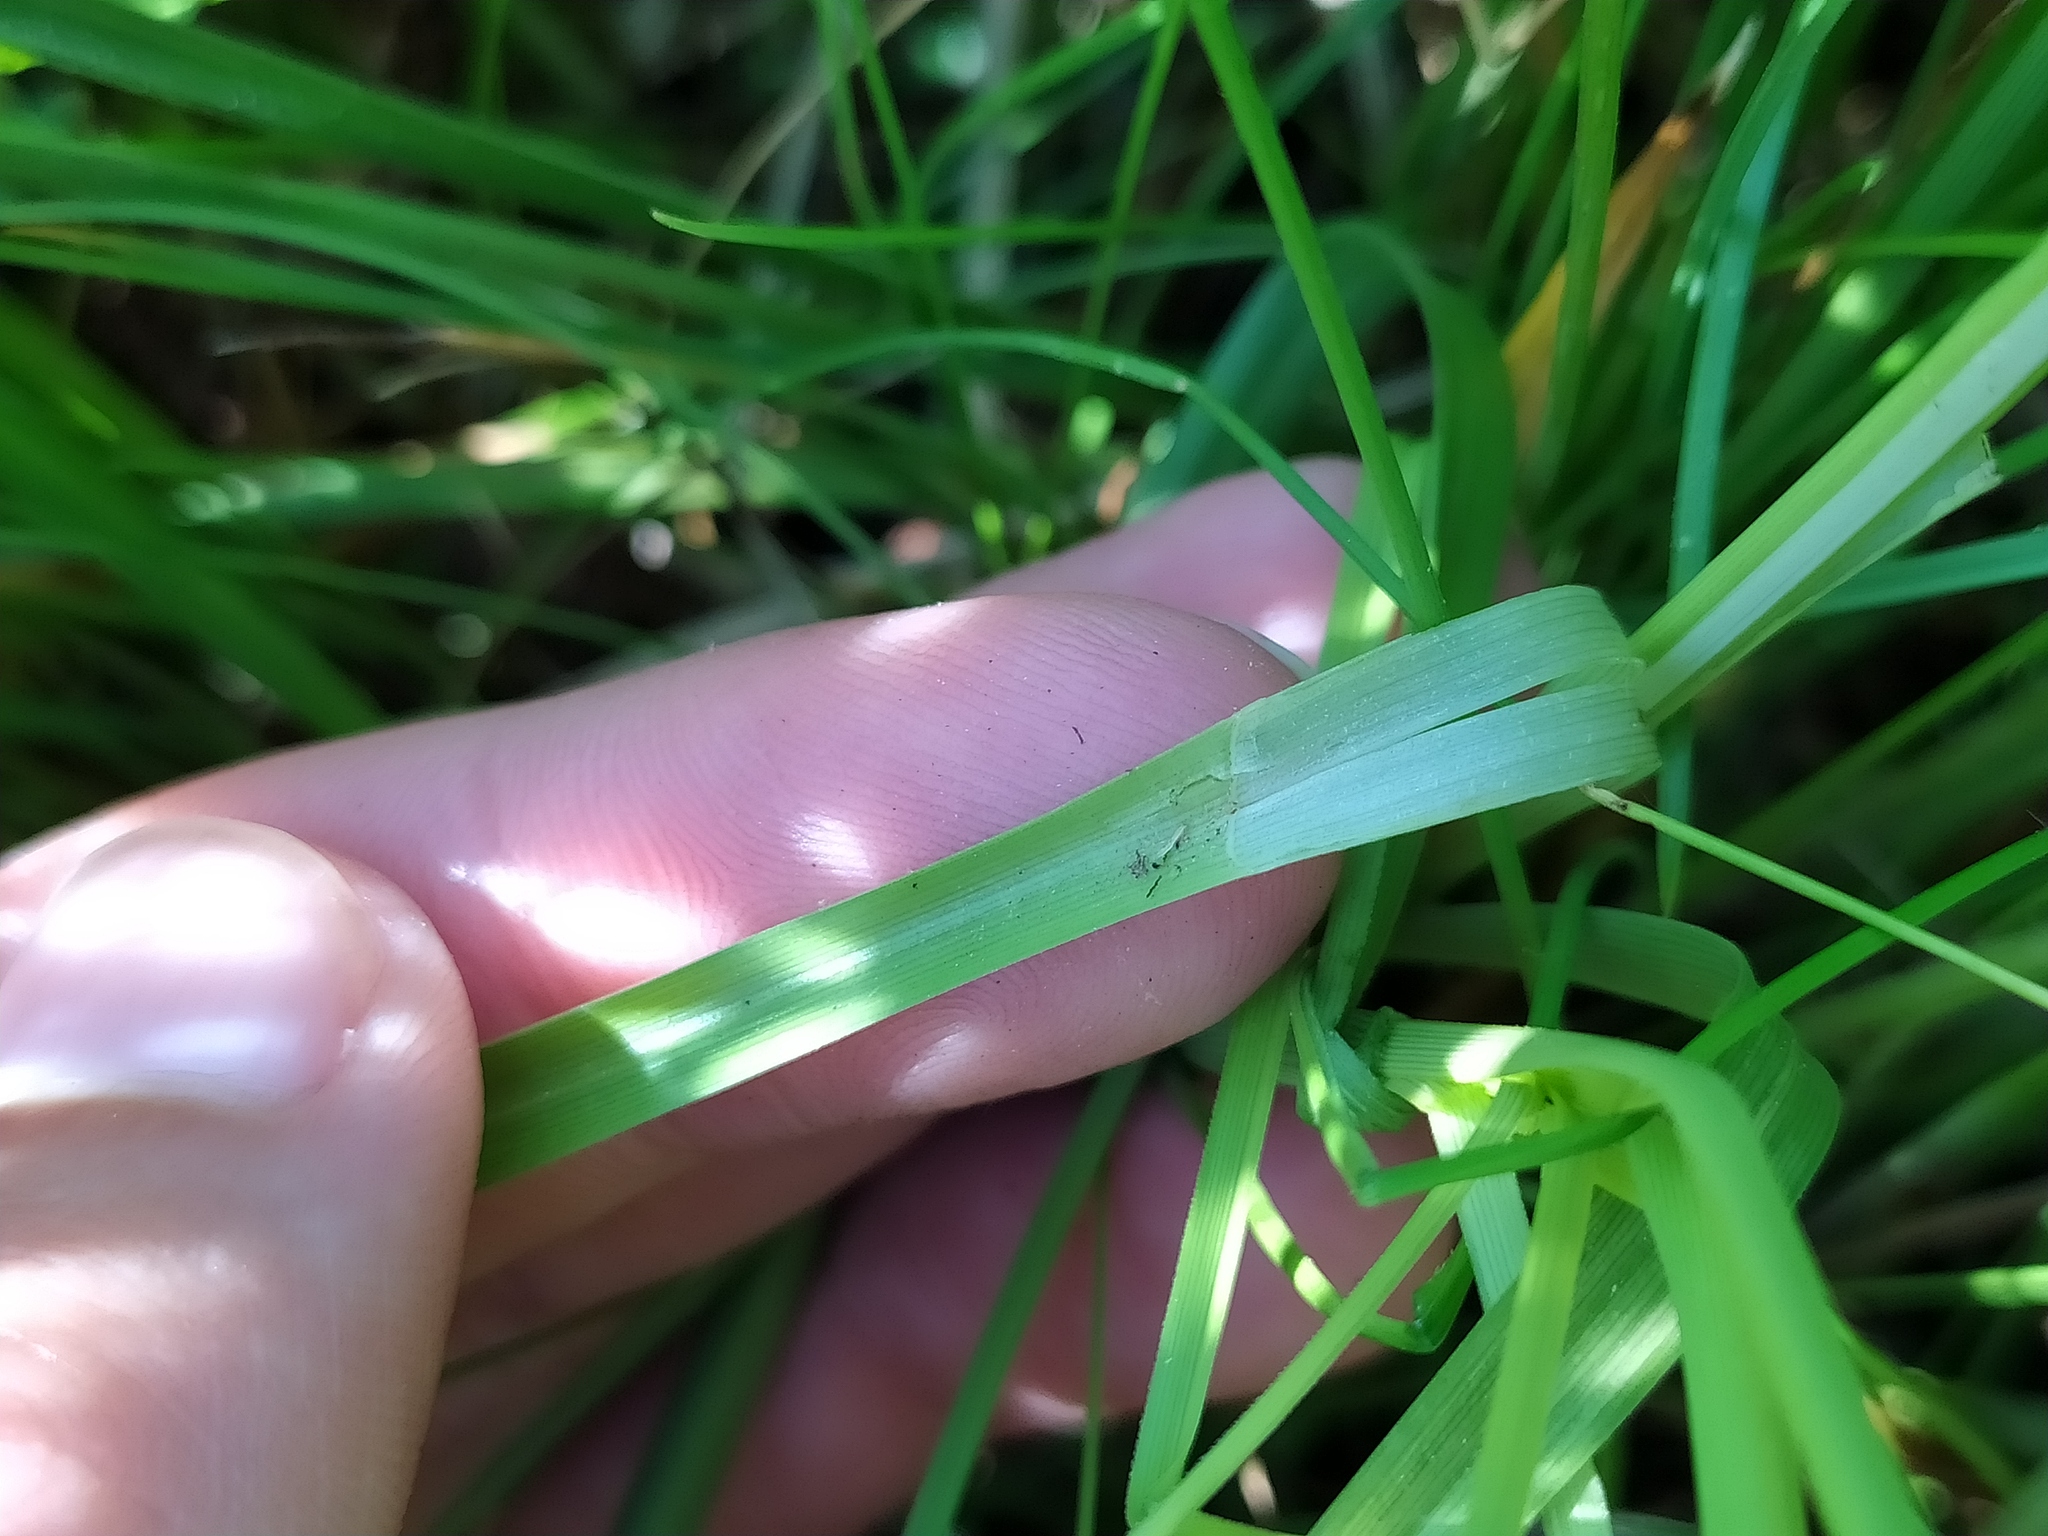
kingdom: Plantae
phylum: Tracheophyta
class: Liliopsida
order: Poales
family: Cyperaceae
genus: Carex
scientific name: Carex diandra
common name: Lesser tussock-sedge
